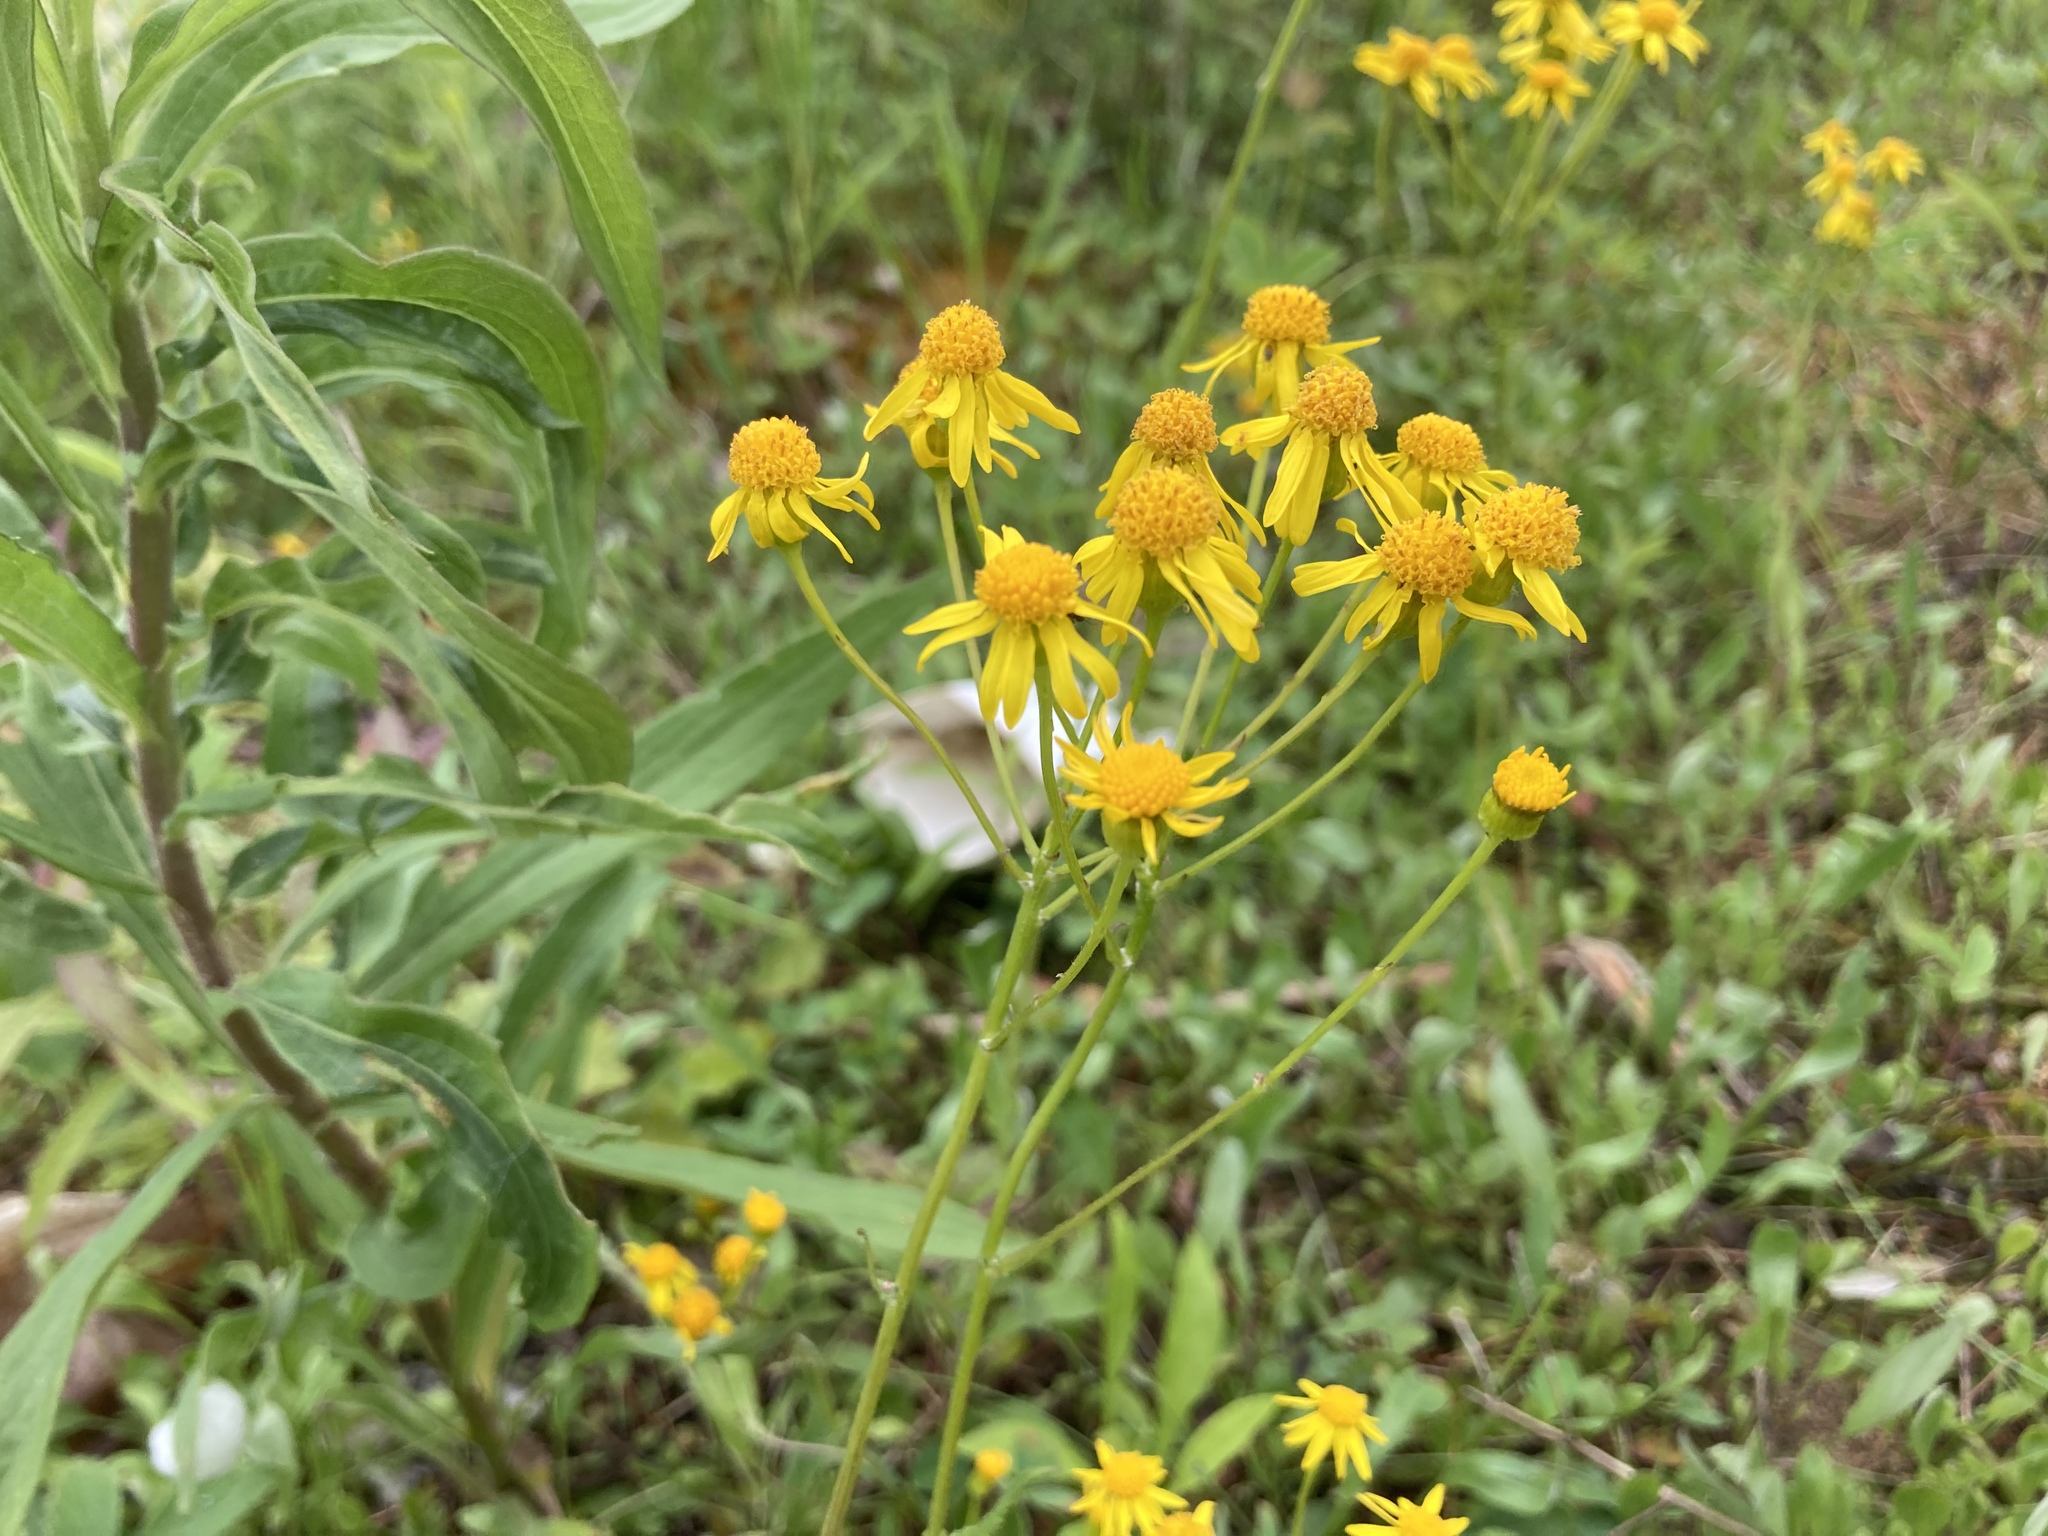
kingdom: Plantae
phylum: Tracheophyta
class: Magnoliopsida
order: Asterales
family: Asteraceae
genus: Packera
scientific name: Packera paupercula
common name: Balsam groundsel
